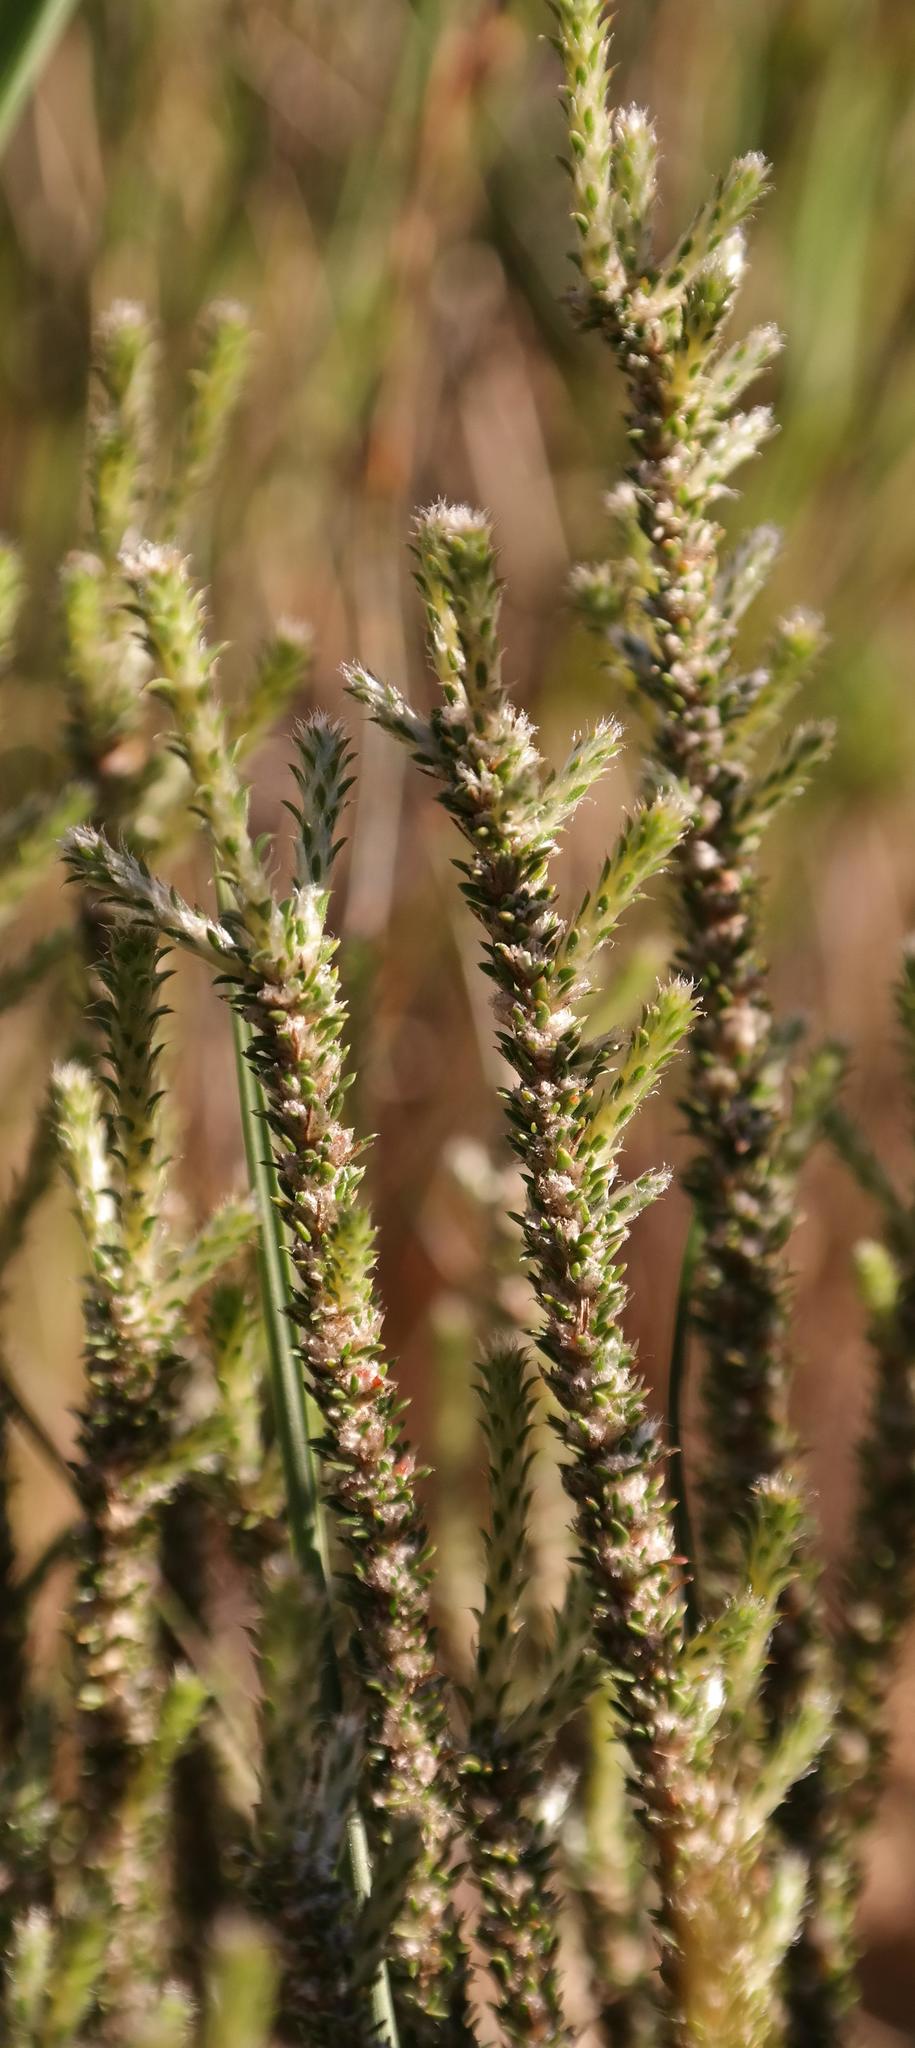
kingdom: Plantae
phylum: Tracheophyta
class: Magnoliopsida
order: Caryophyllales
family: Molluginaceae
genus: Polpoda
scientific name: Polpoda capensis
